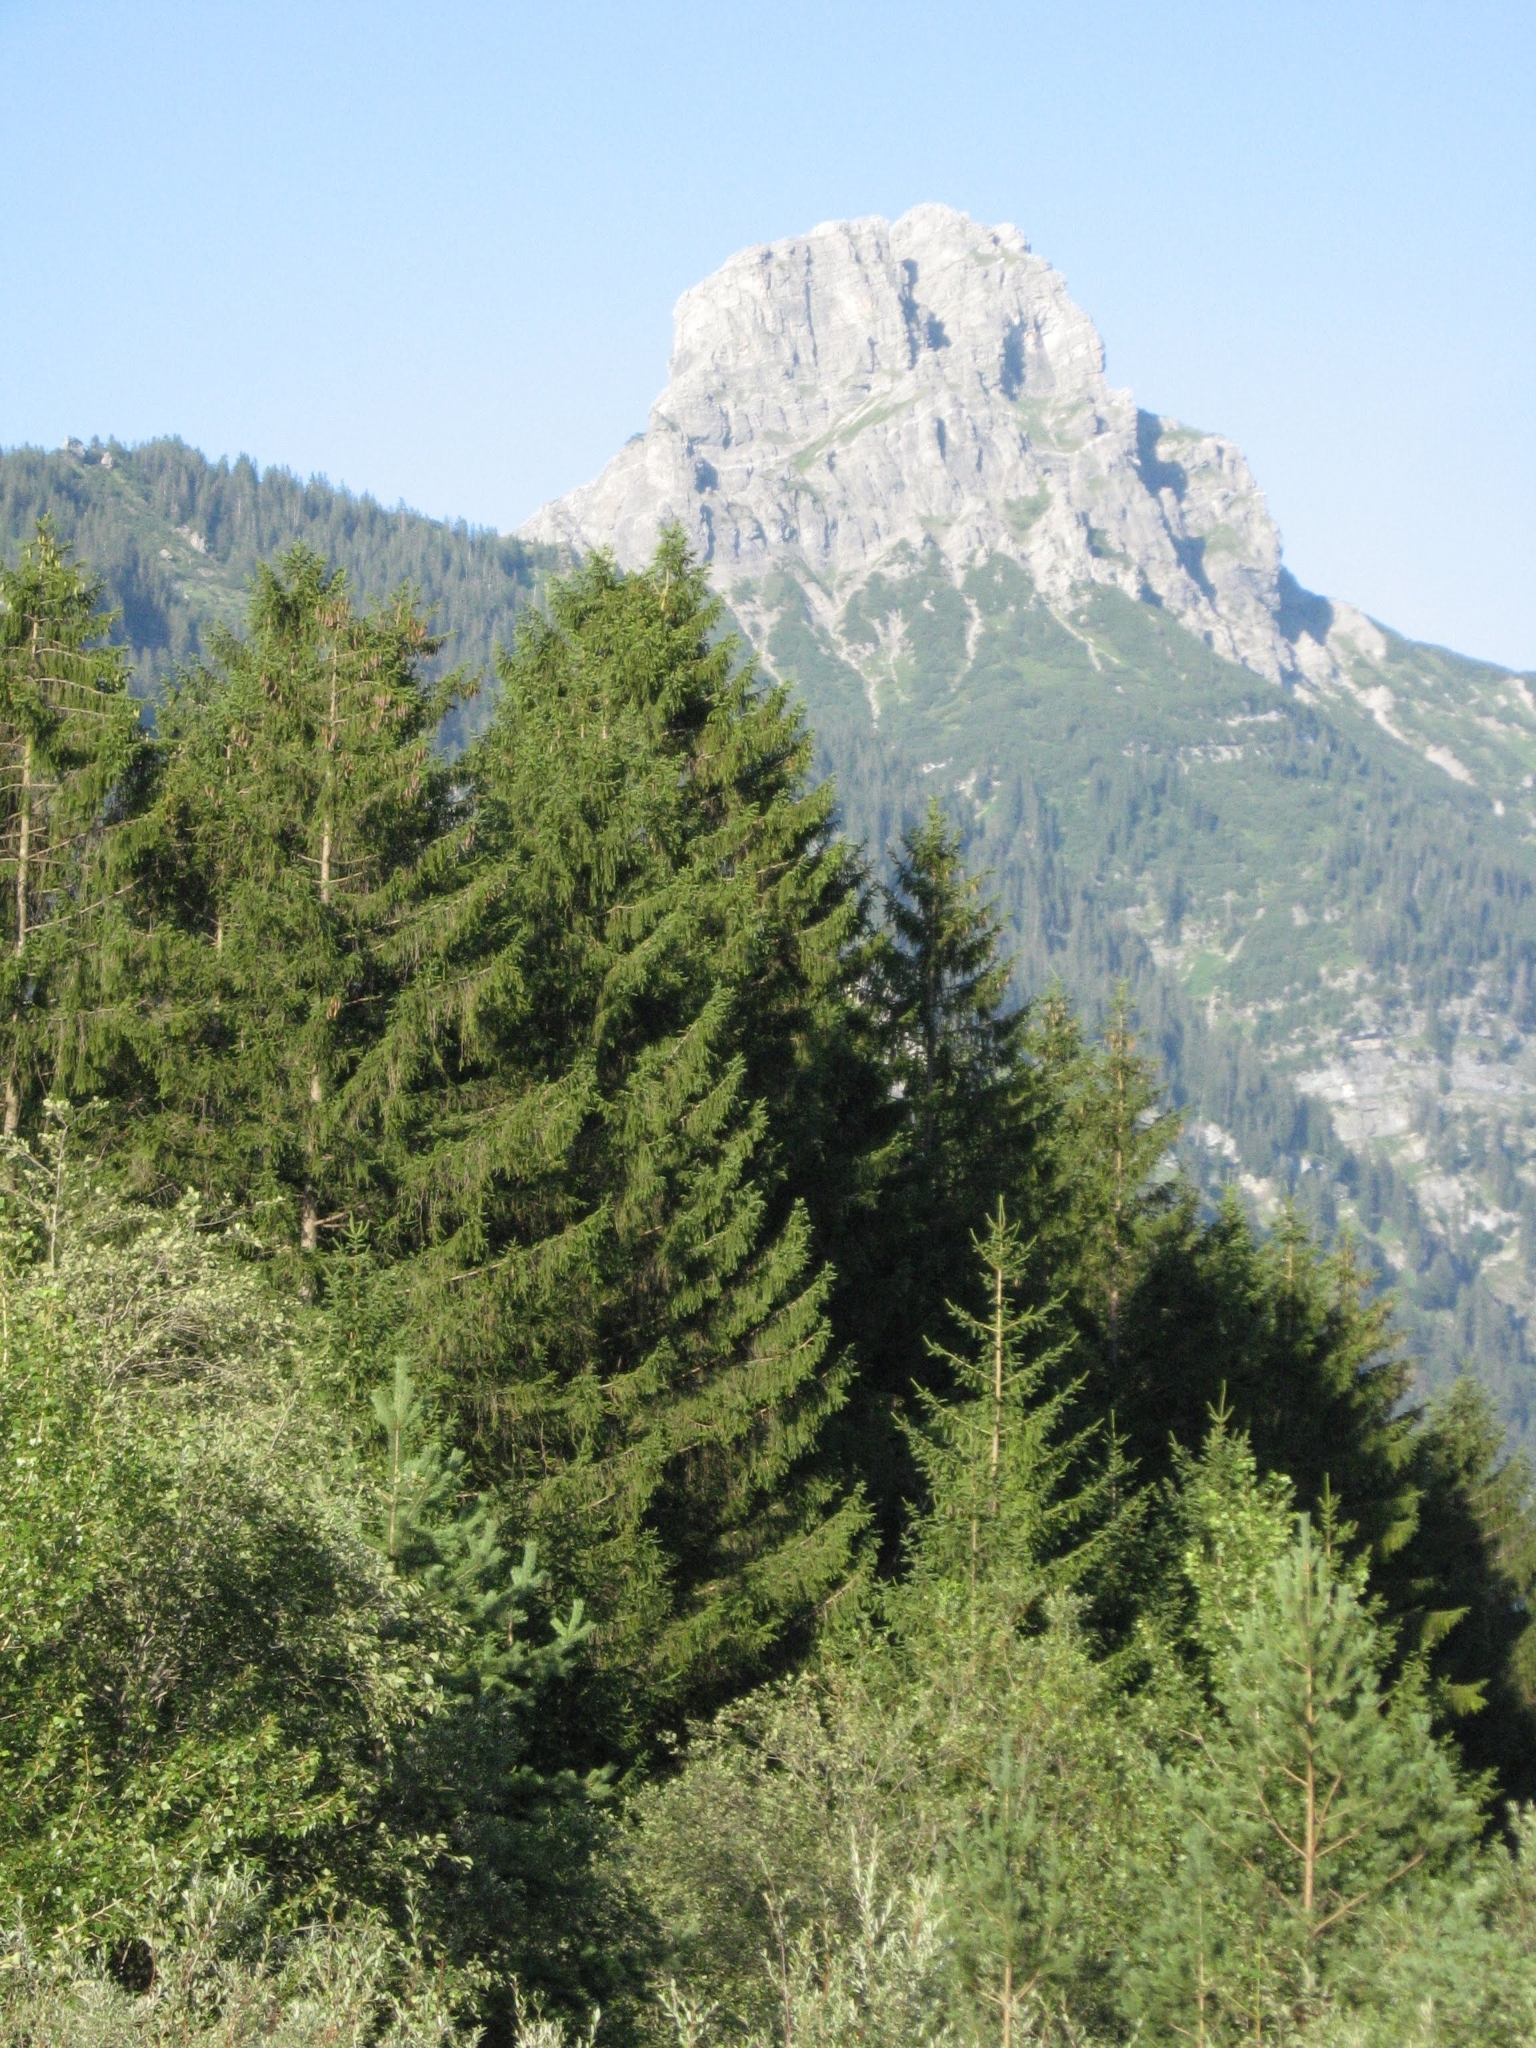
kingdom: Plantae
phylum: Tracheophyta
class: Pinopsida
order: Pinales
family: Pinaceae
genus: Picea
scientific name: Picea abies
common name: Norway spruce
